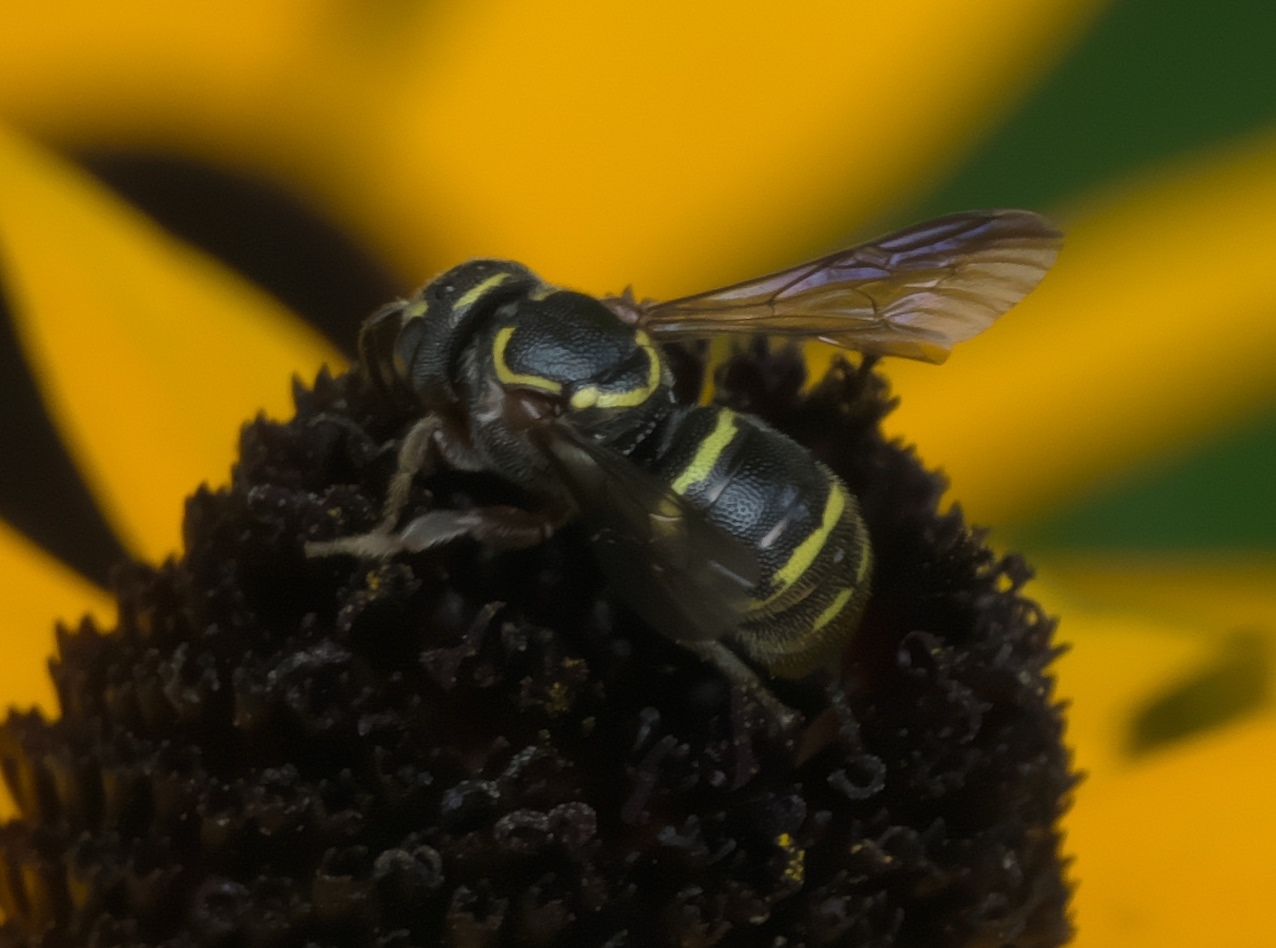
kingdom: Animalia
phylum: Arthropoda
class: Insecta
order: Hymenoptera
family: Megachilidae
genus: Stelis
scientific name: Stelis costalis
